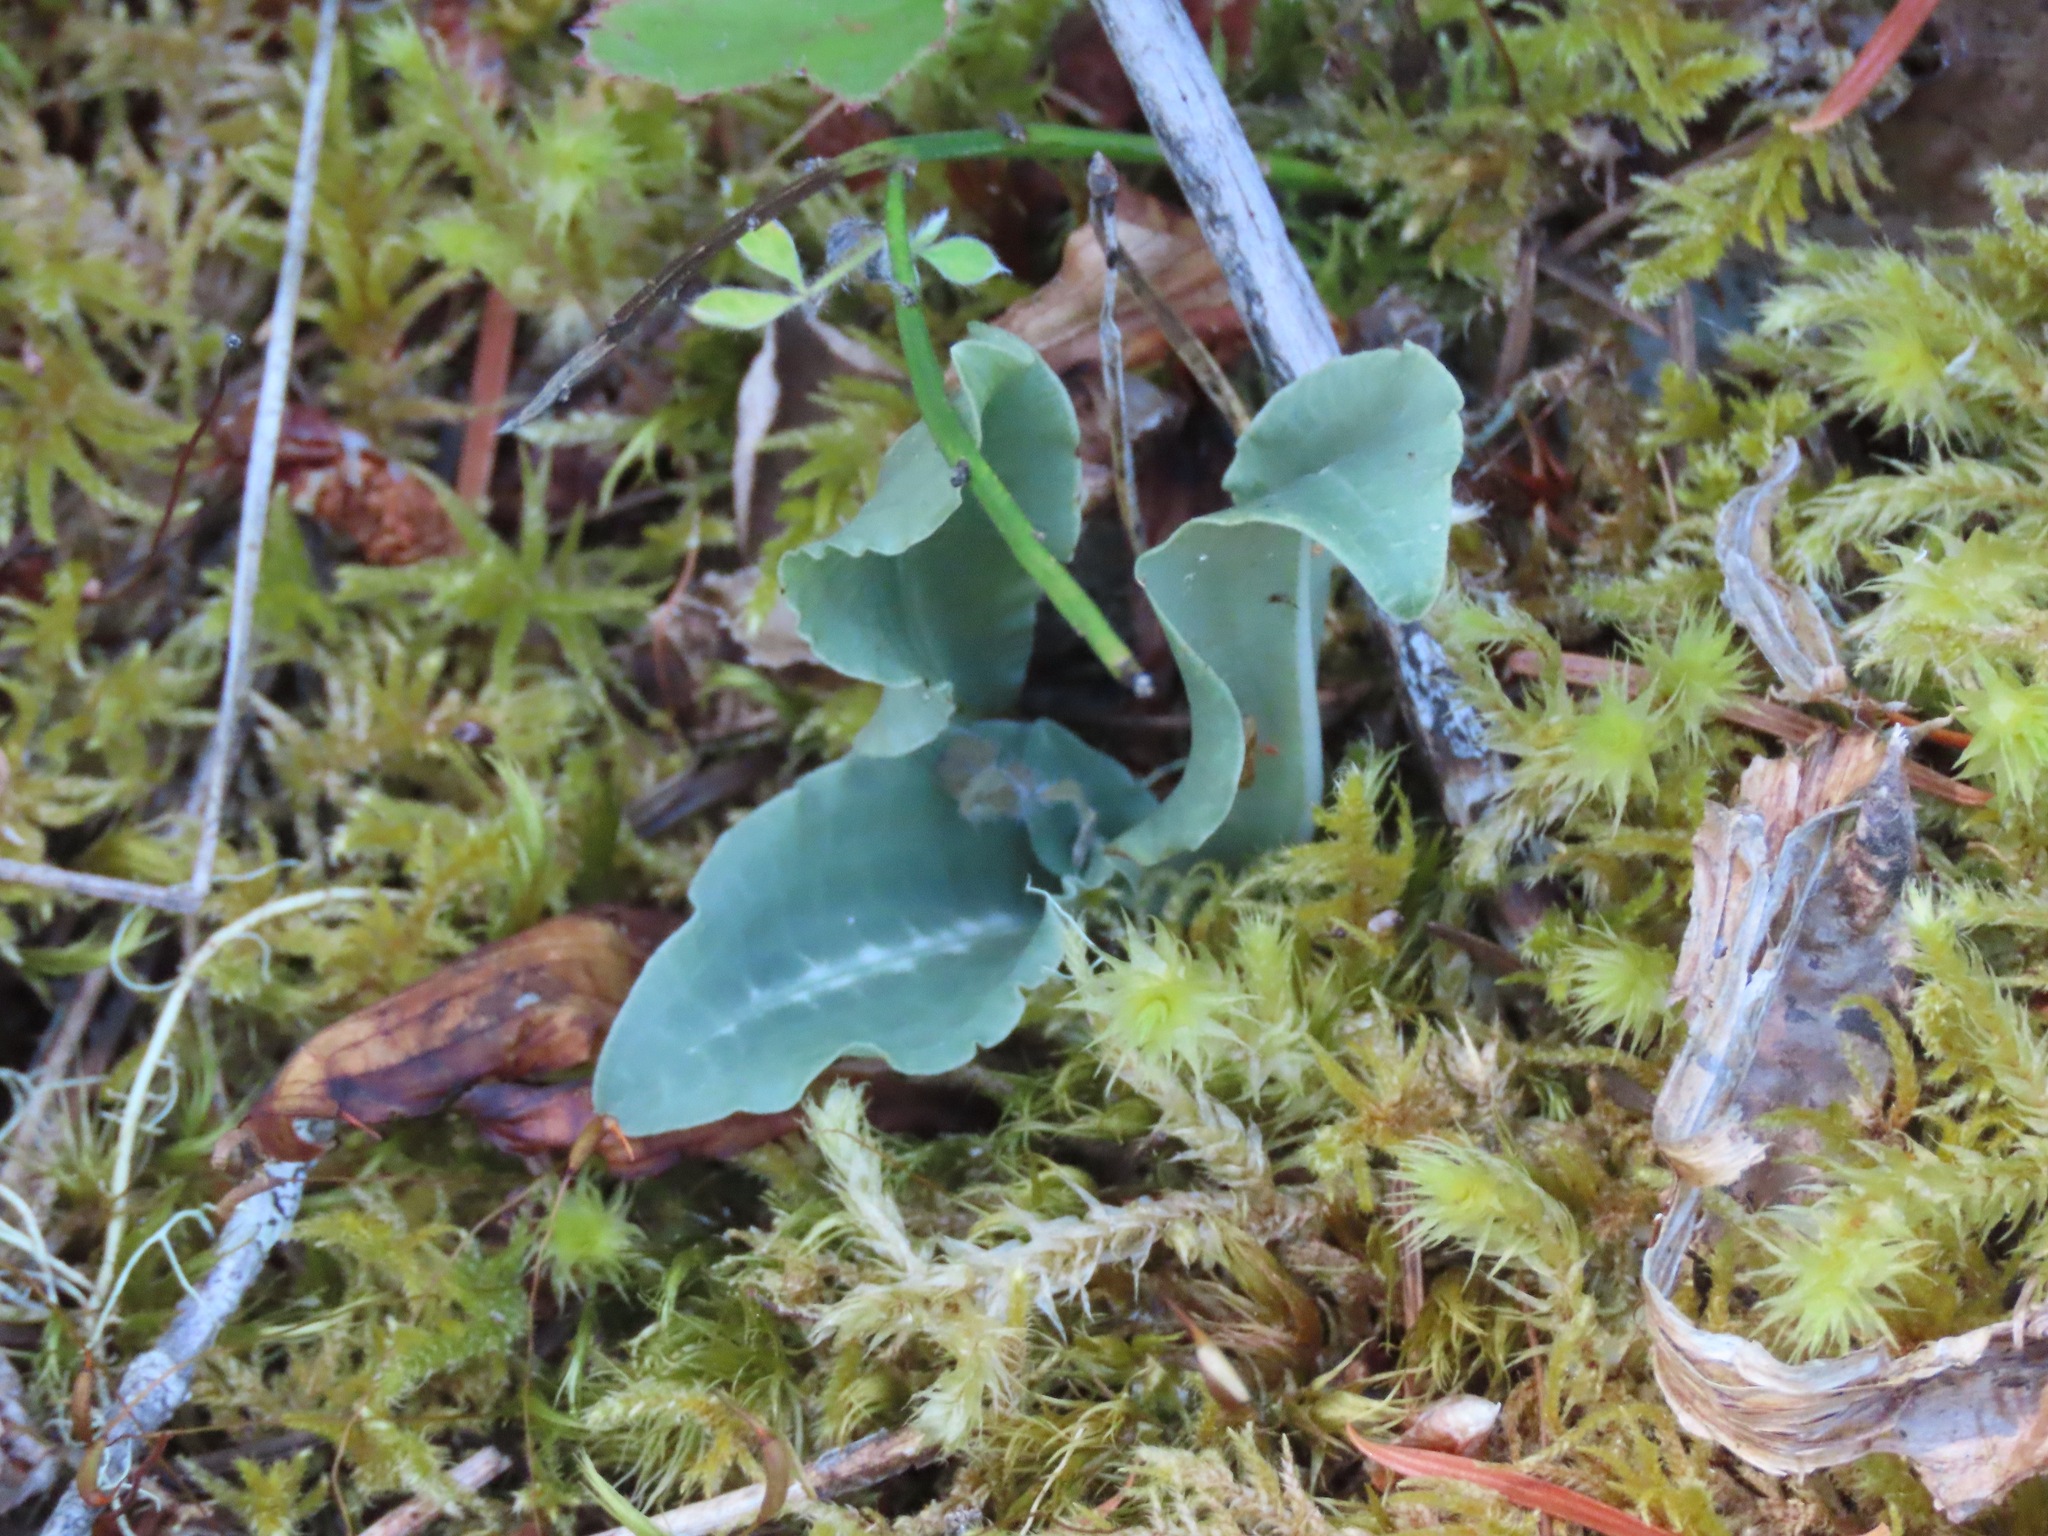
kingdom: Plantae
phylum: Tracheophyta
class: Liliopsida
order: Asparagales
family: Orchidaceae
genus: Goodyera
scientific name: Goodyera oblongifolia
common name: Giant rattlesnake-plantain
